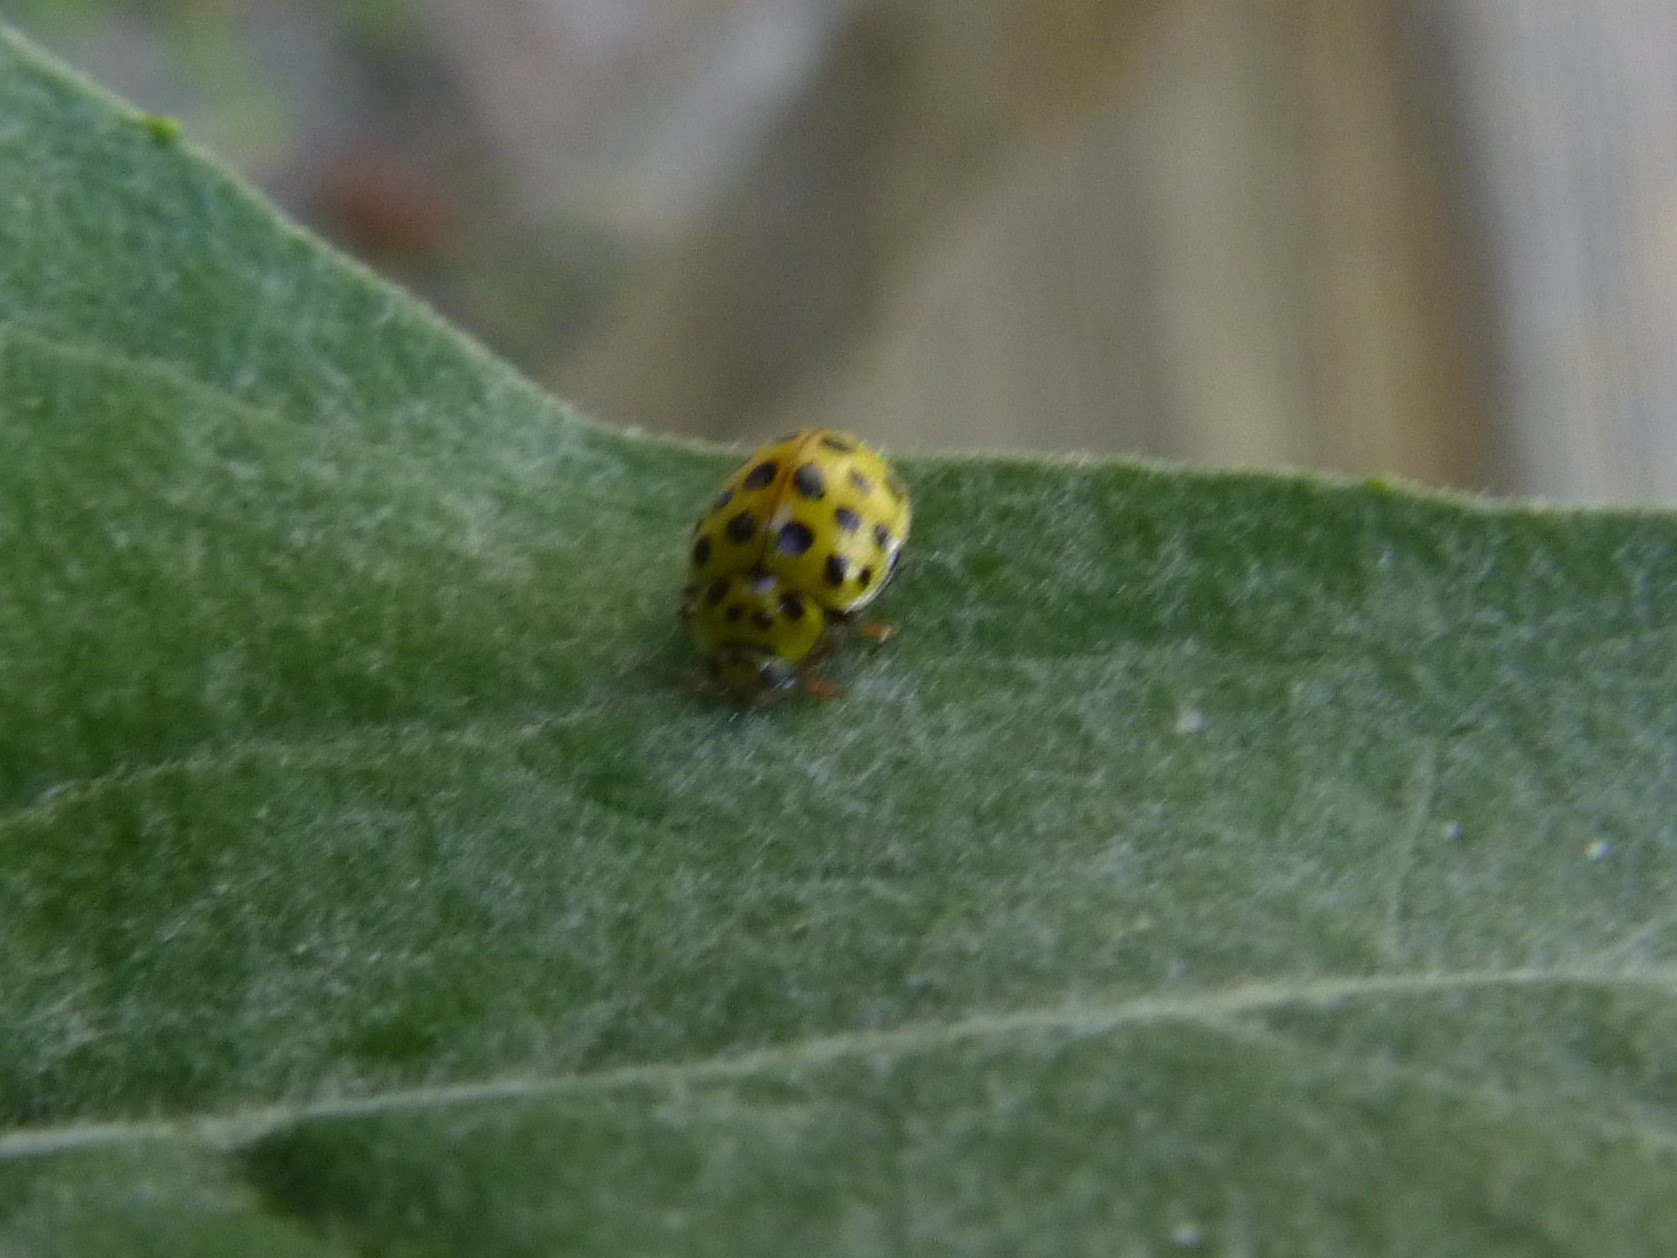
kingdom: Animalia
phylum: Arthropoda
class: Insecta
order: Coleoptera
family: Coccinellidae
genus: Psyllobora
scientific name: Psyllobora vigintiduopunctata
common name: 22-spot ladybird
